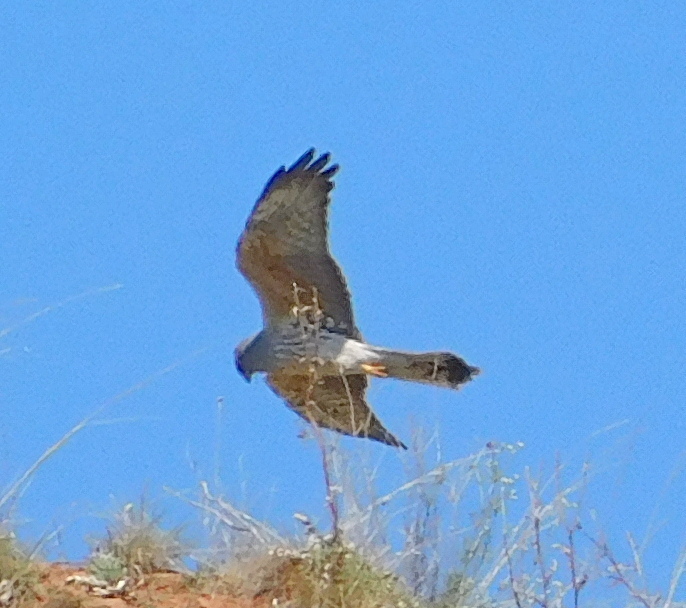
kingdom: Animalia
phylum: Chordata
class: Aves
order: Accipitriformes
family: Accipitridae
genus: Circus
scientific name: Circus pygargus
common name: Montagu's harrier
